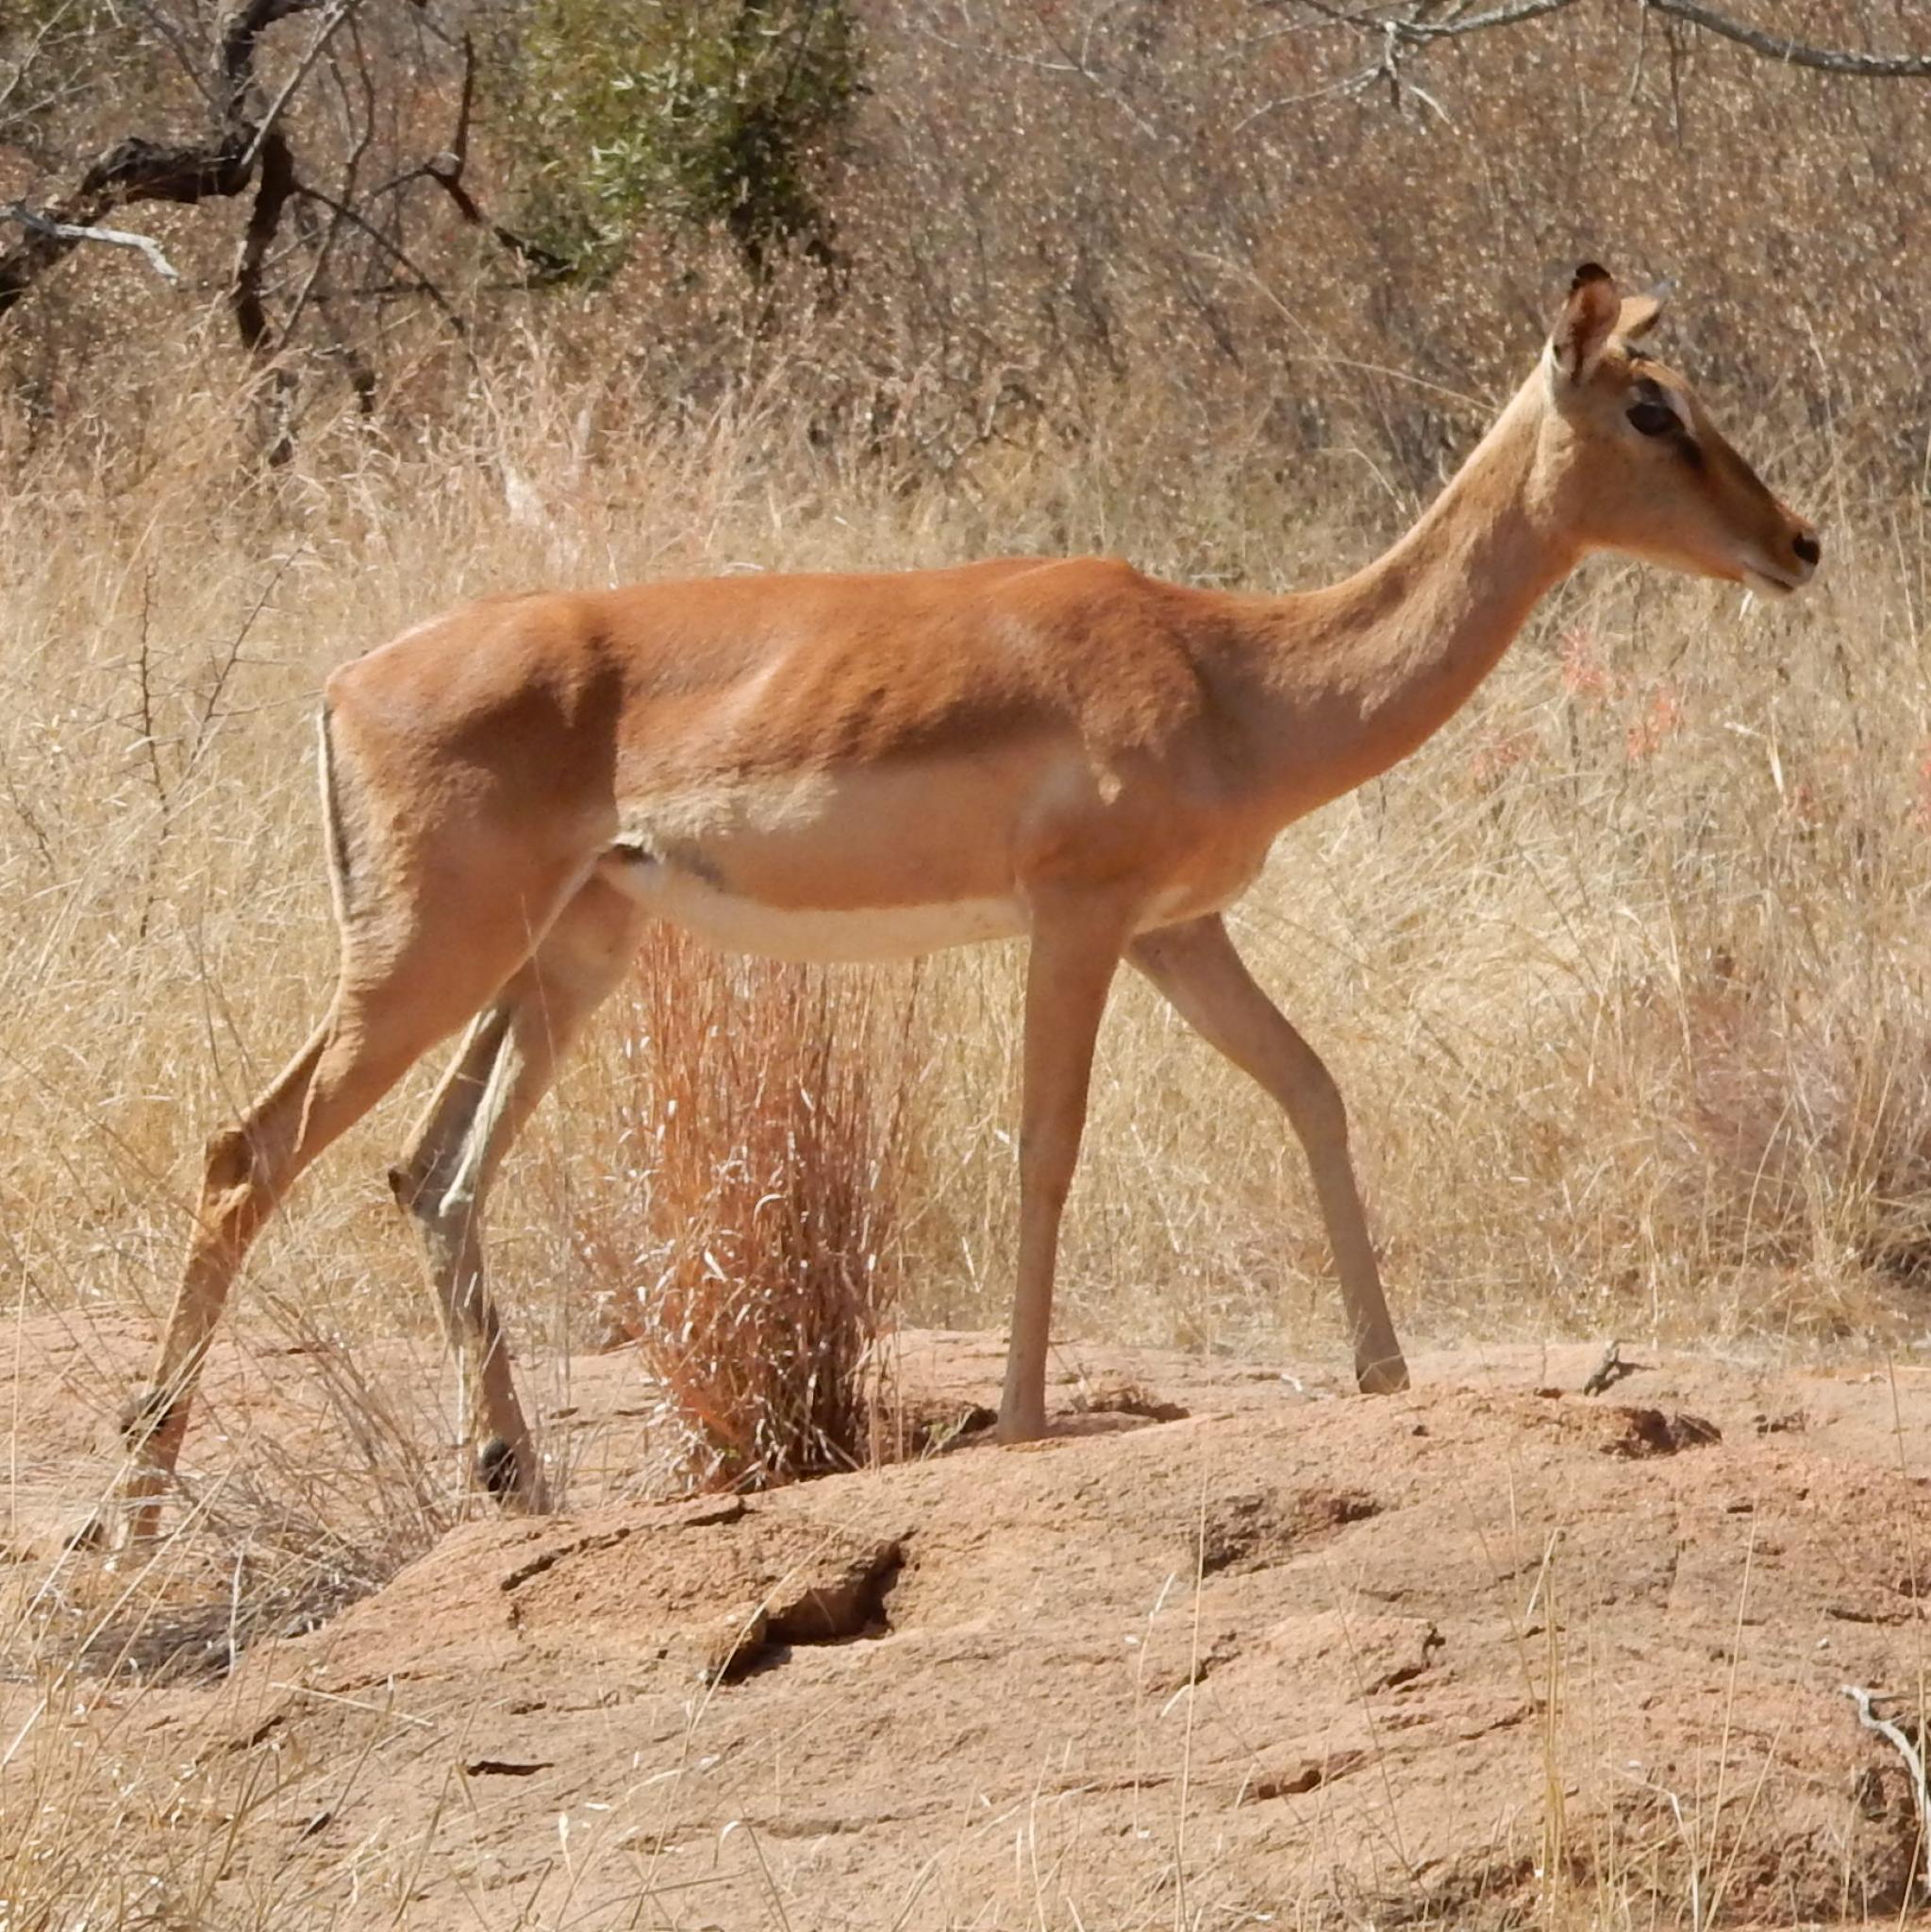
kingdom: Animalia
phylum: Chordata
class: Mammalia
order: Artiodactyla
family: Bovidae
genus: Aepyceros
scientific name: Aepyceros melampus
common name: Impala
